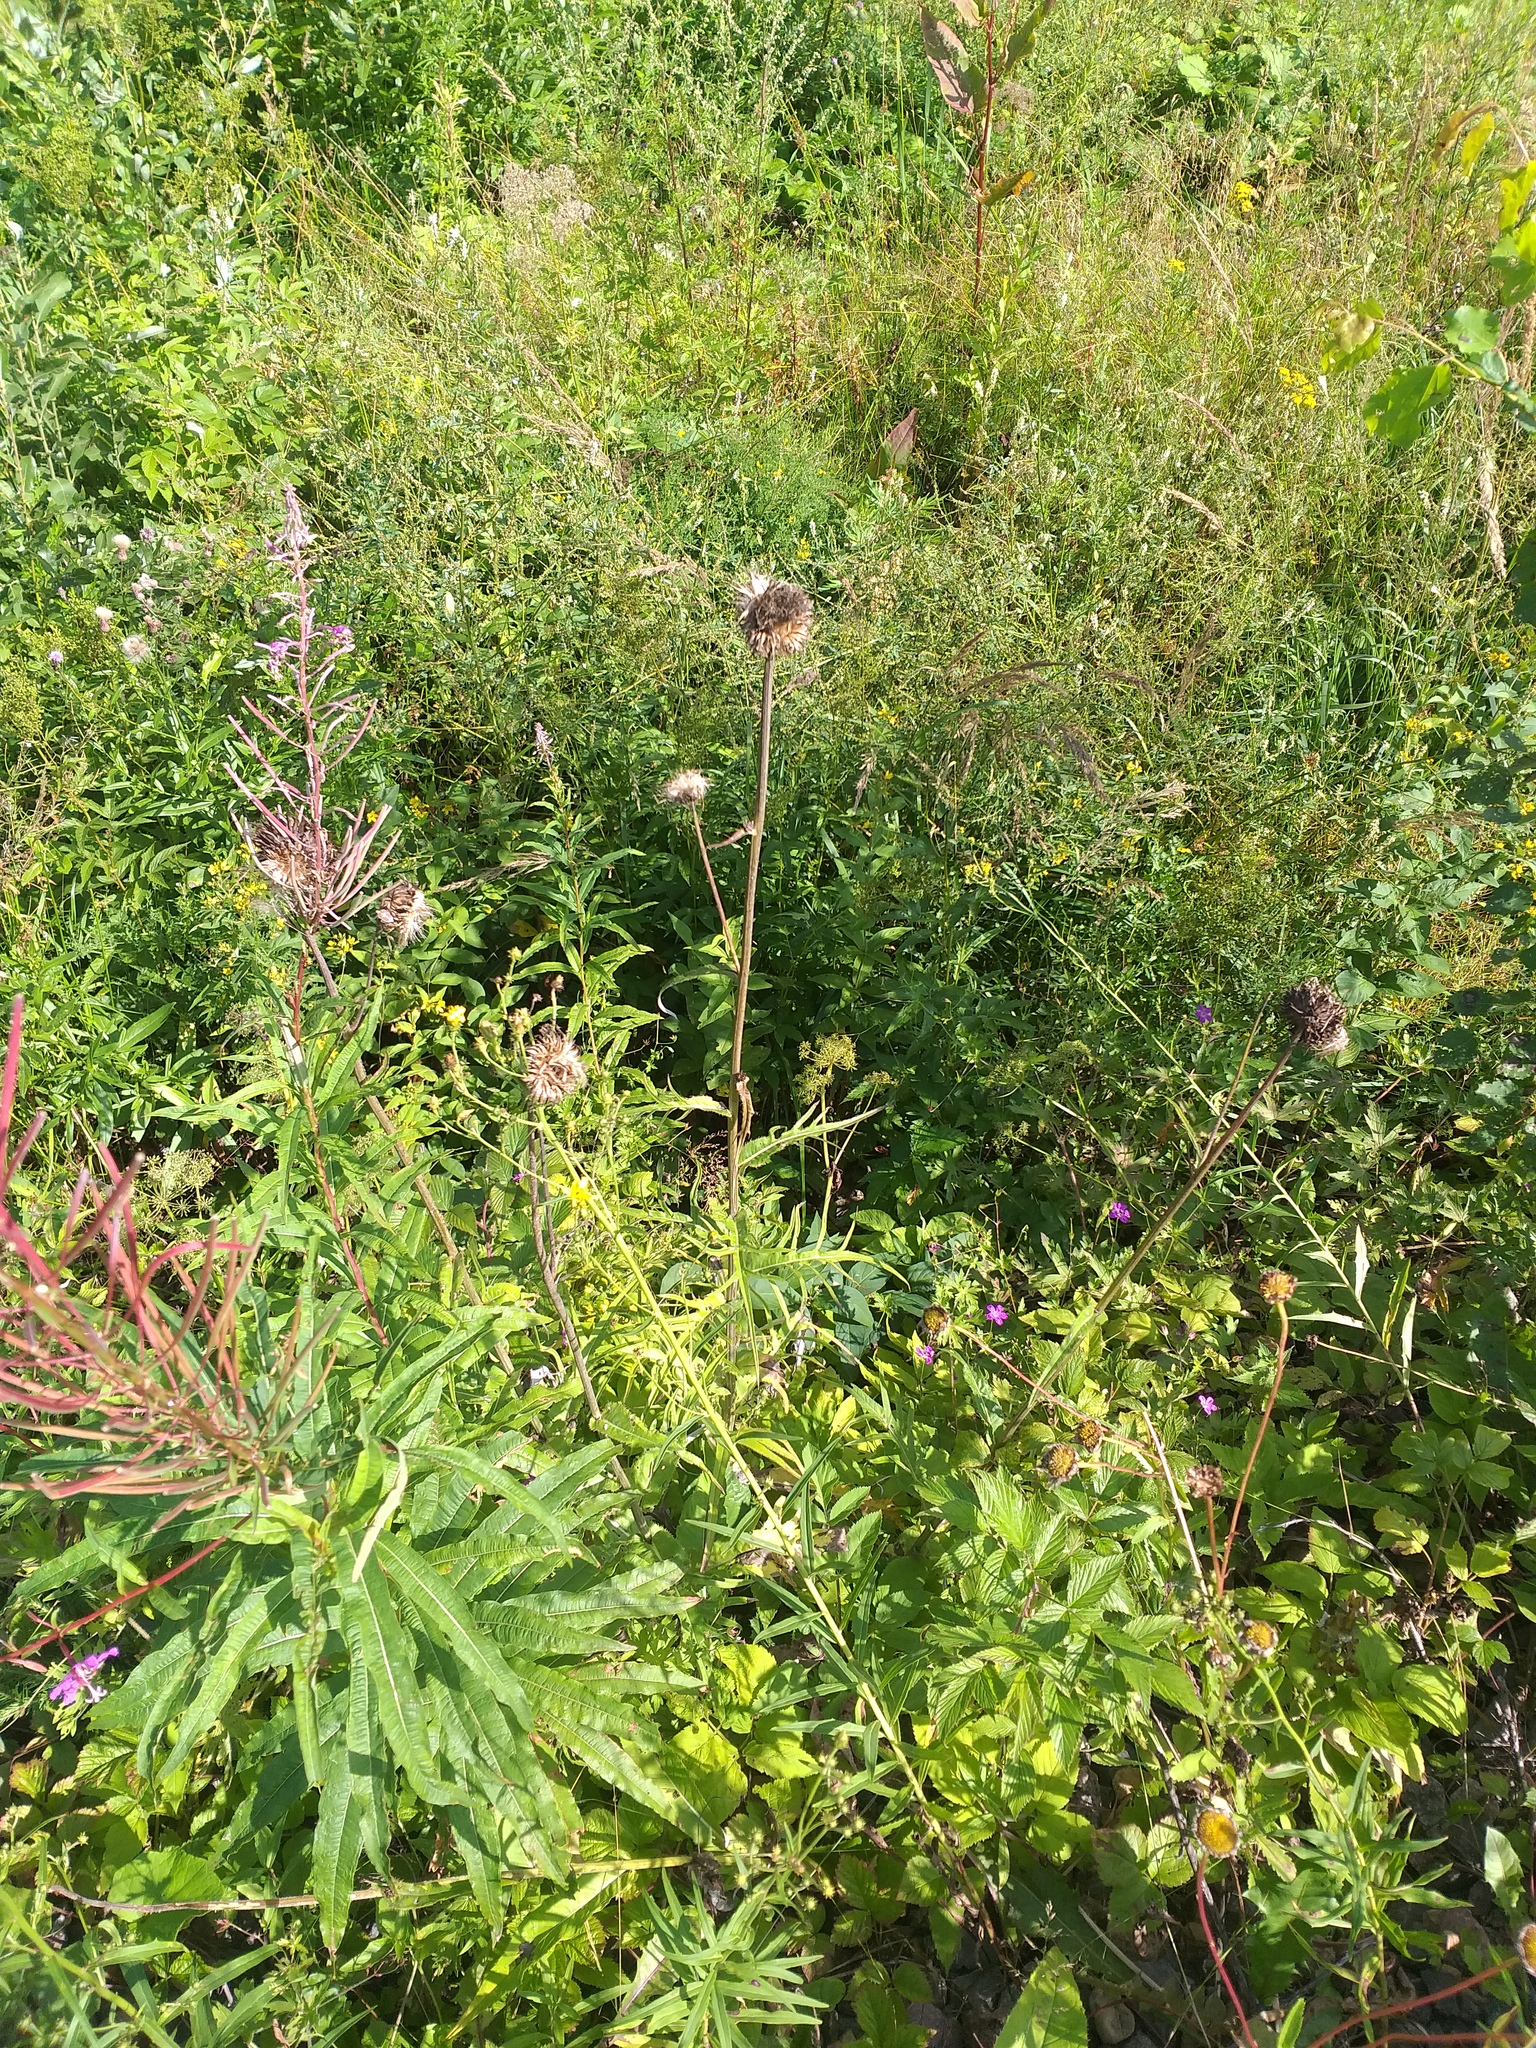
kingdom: Plantae
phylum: Tracheophyta
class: Magnoliopsida
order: Asterales
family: Asteraceae
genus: Cirsium
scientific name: Cirsium heterophyllum
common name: Melancholy thistle
